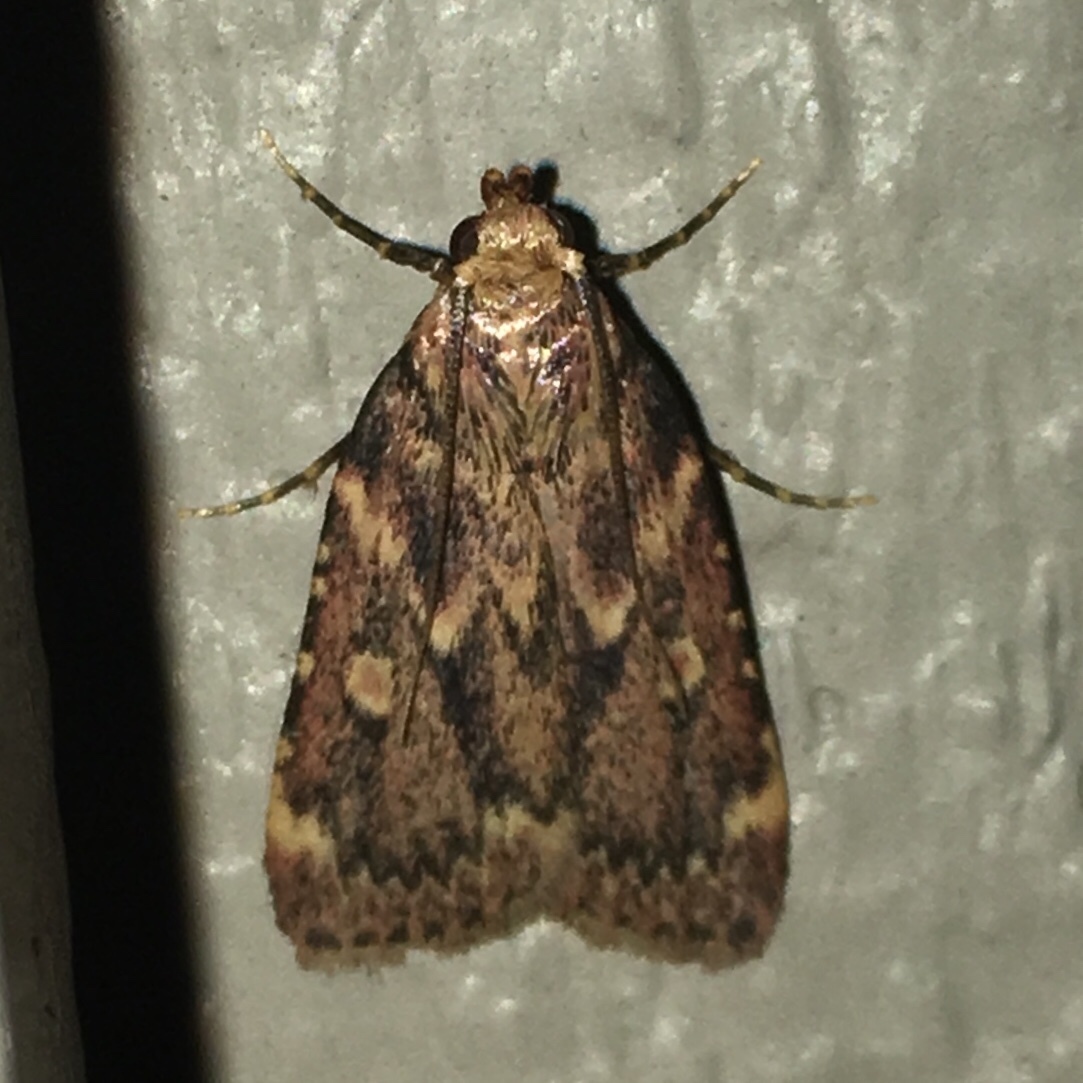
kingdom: Animalia
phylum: Arthropoda
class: Insecta
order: Lepidoptera
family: Pyralidae
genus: Aglossa
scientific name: Aglossa cuprina
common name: Grease moth
